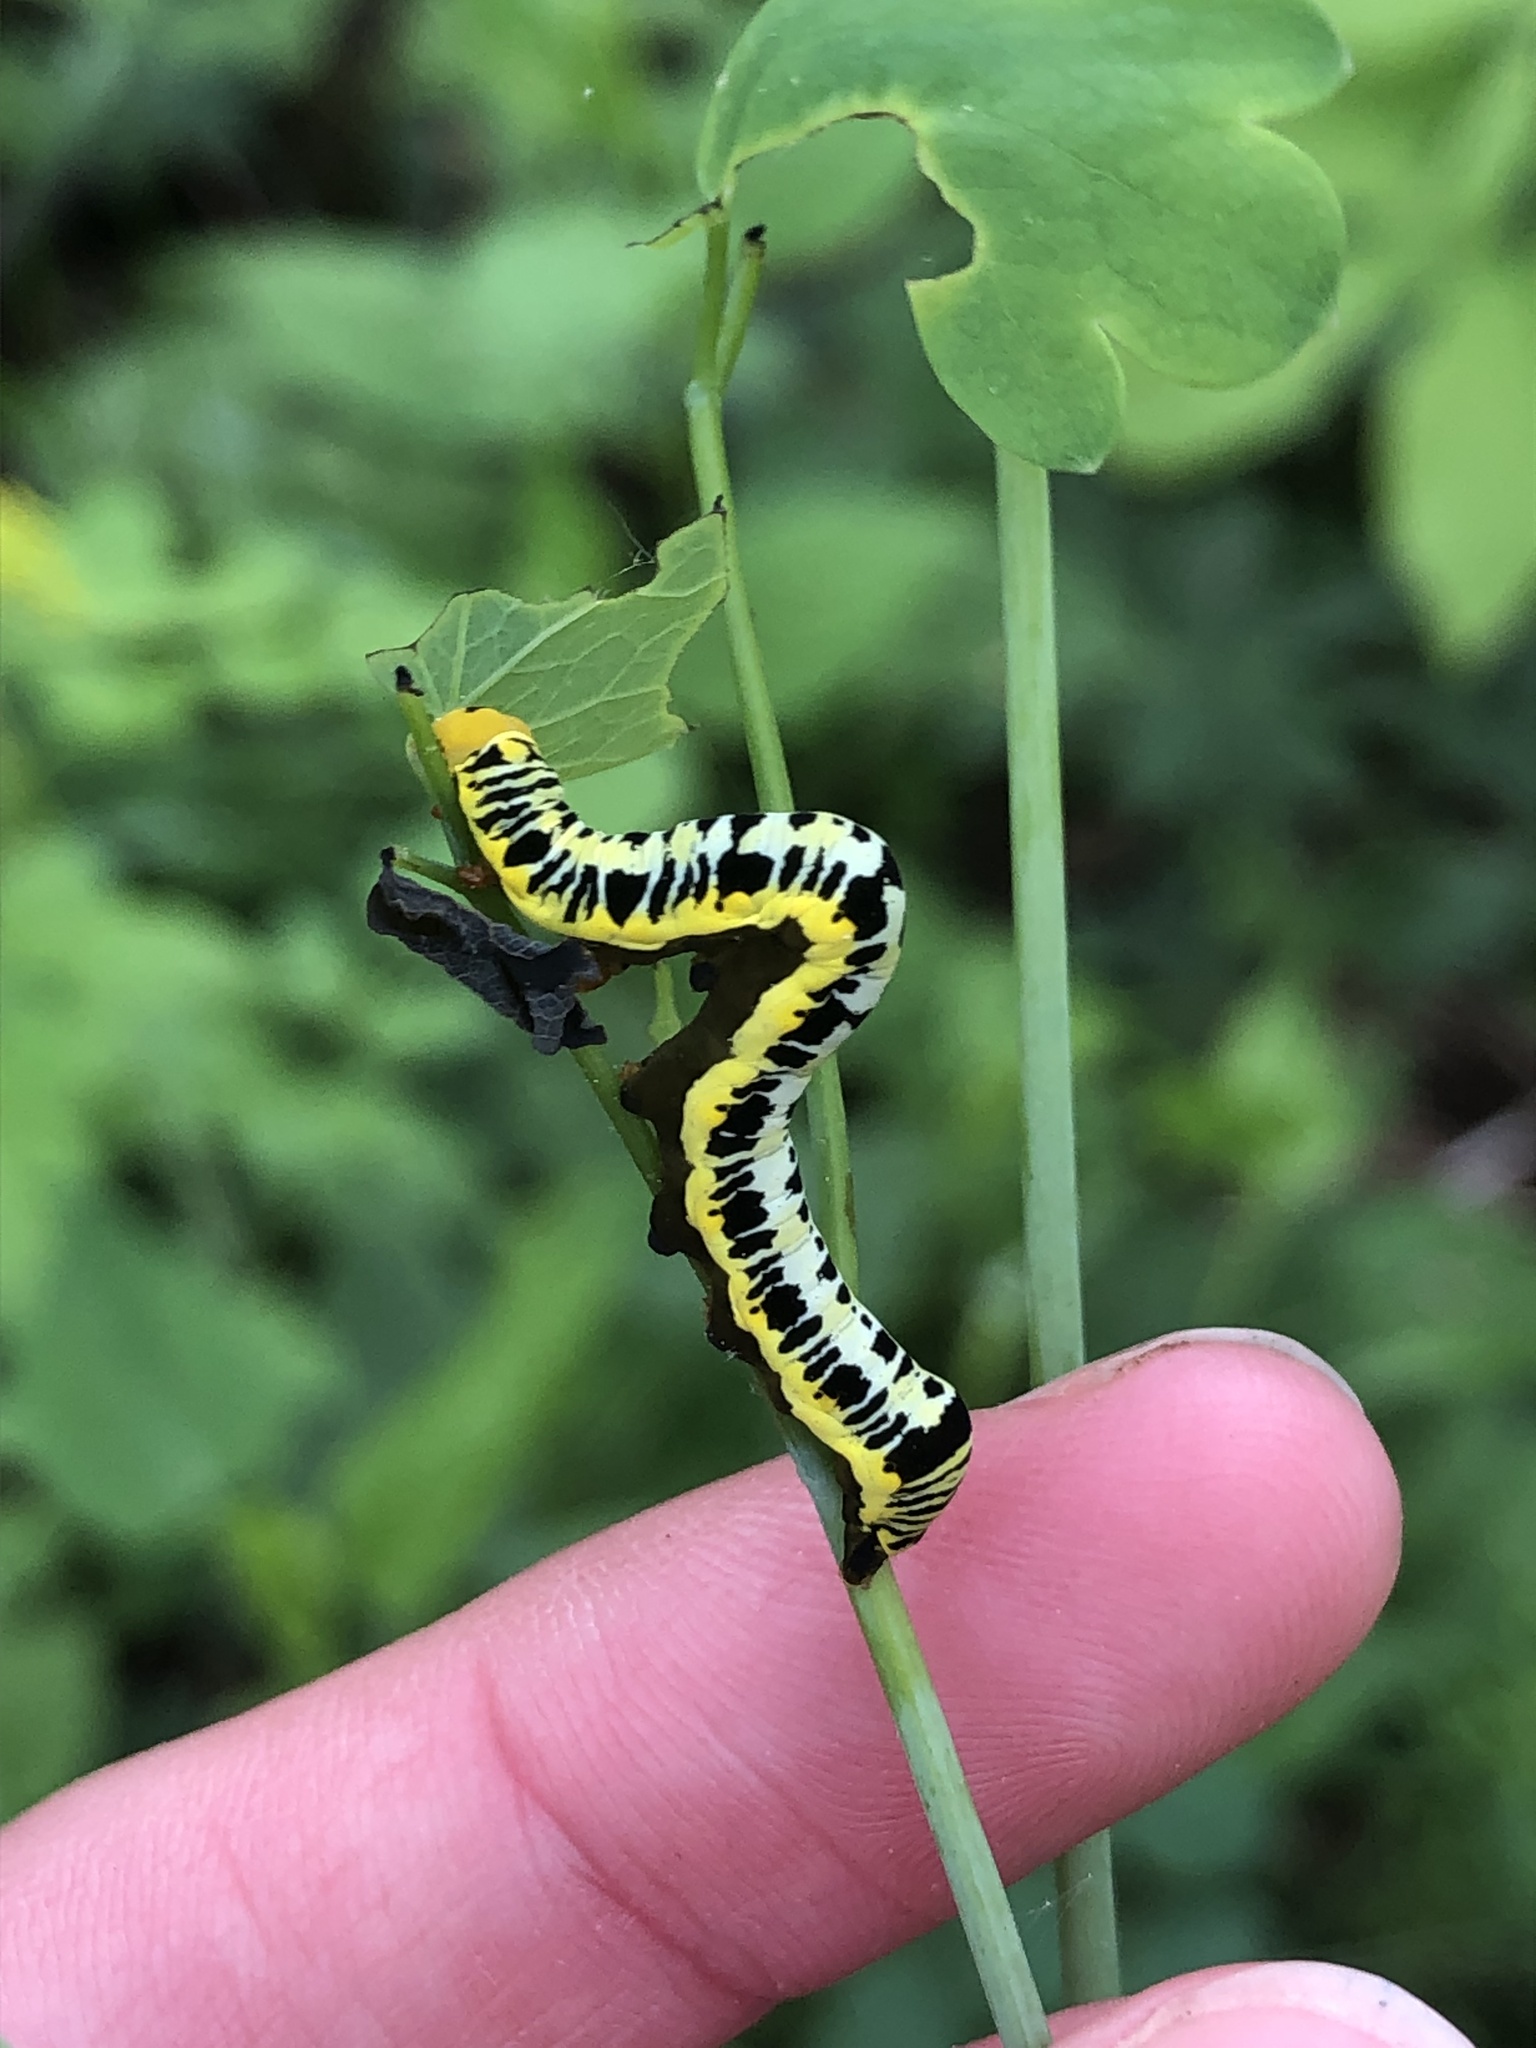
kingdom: Animalia
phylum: Arthropoda
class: Insecta
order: Lepidoptera
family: Erebidae
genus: Calyptra
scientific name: Calyptra canadensis
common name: Canadian owlet
